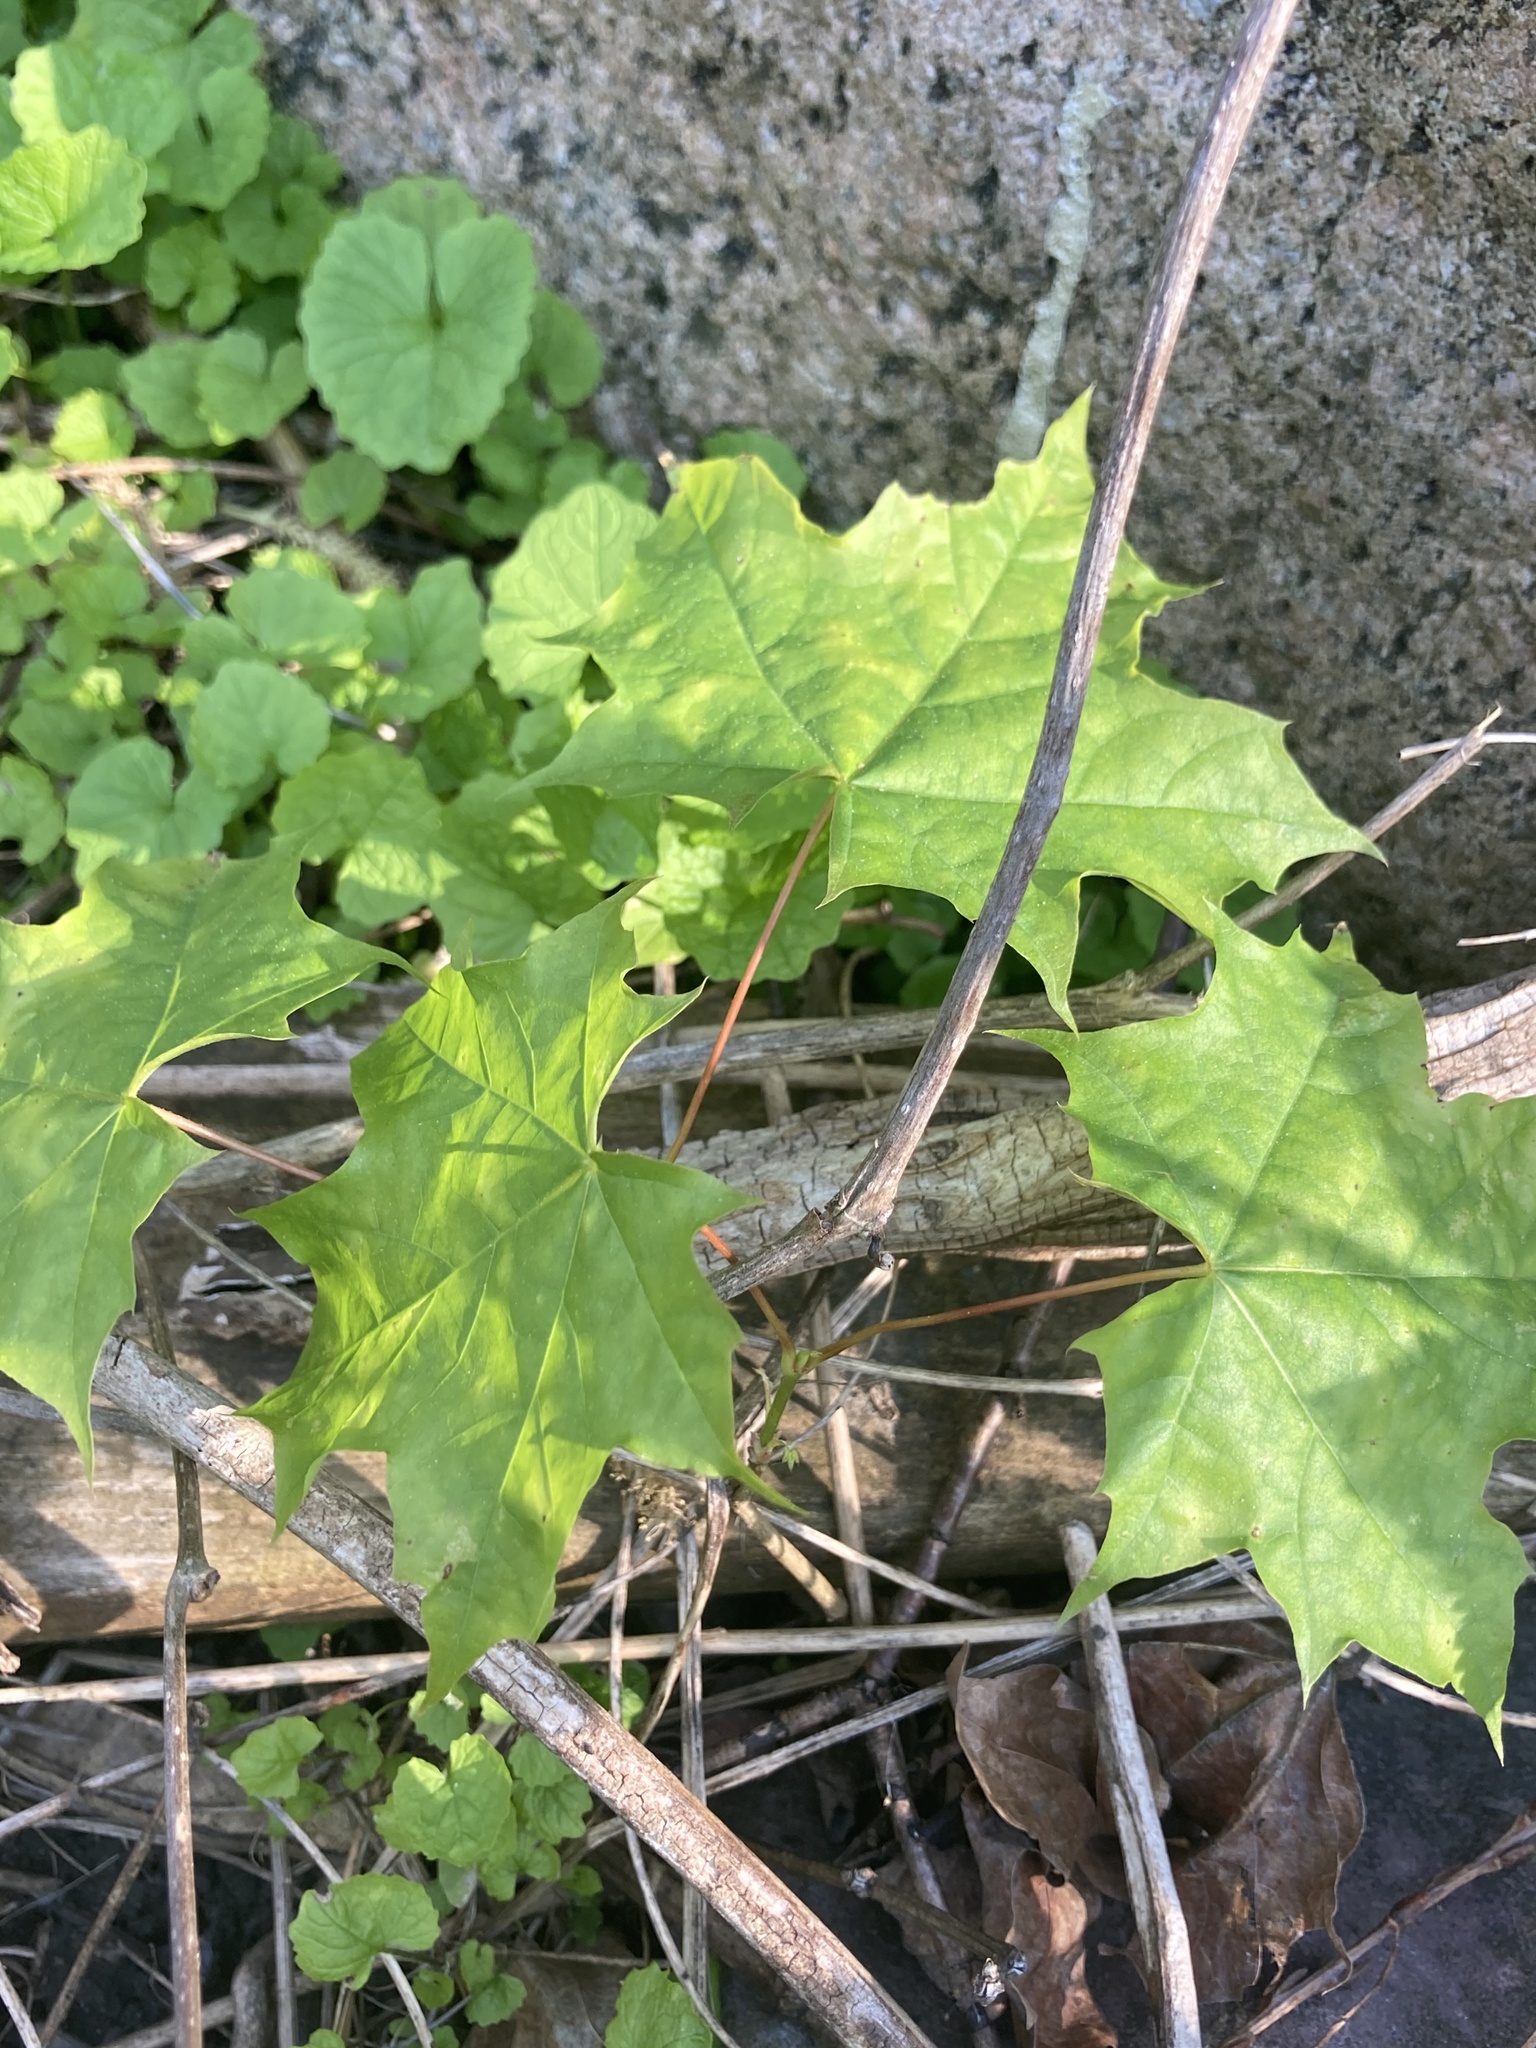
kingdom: Plantae
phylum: Tracheophyta
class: Magnoliopsida
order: Sapindales
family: Sapindaceae
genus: Acer
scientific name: Acer saccharum
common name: Sugar maple
